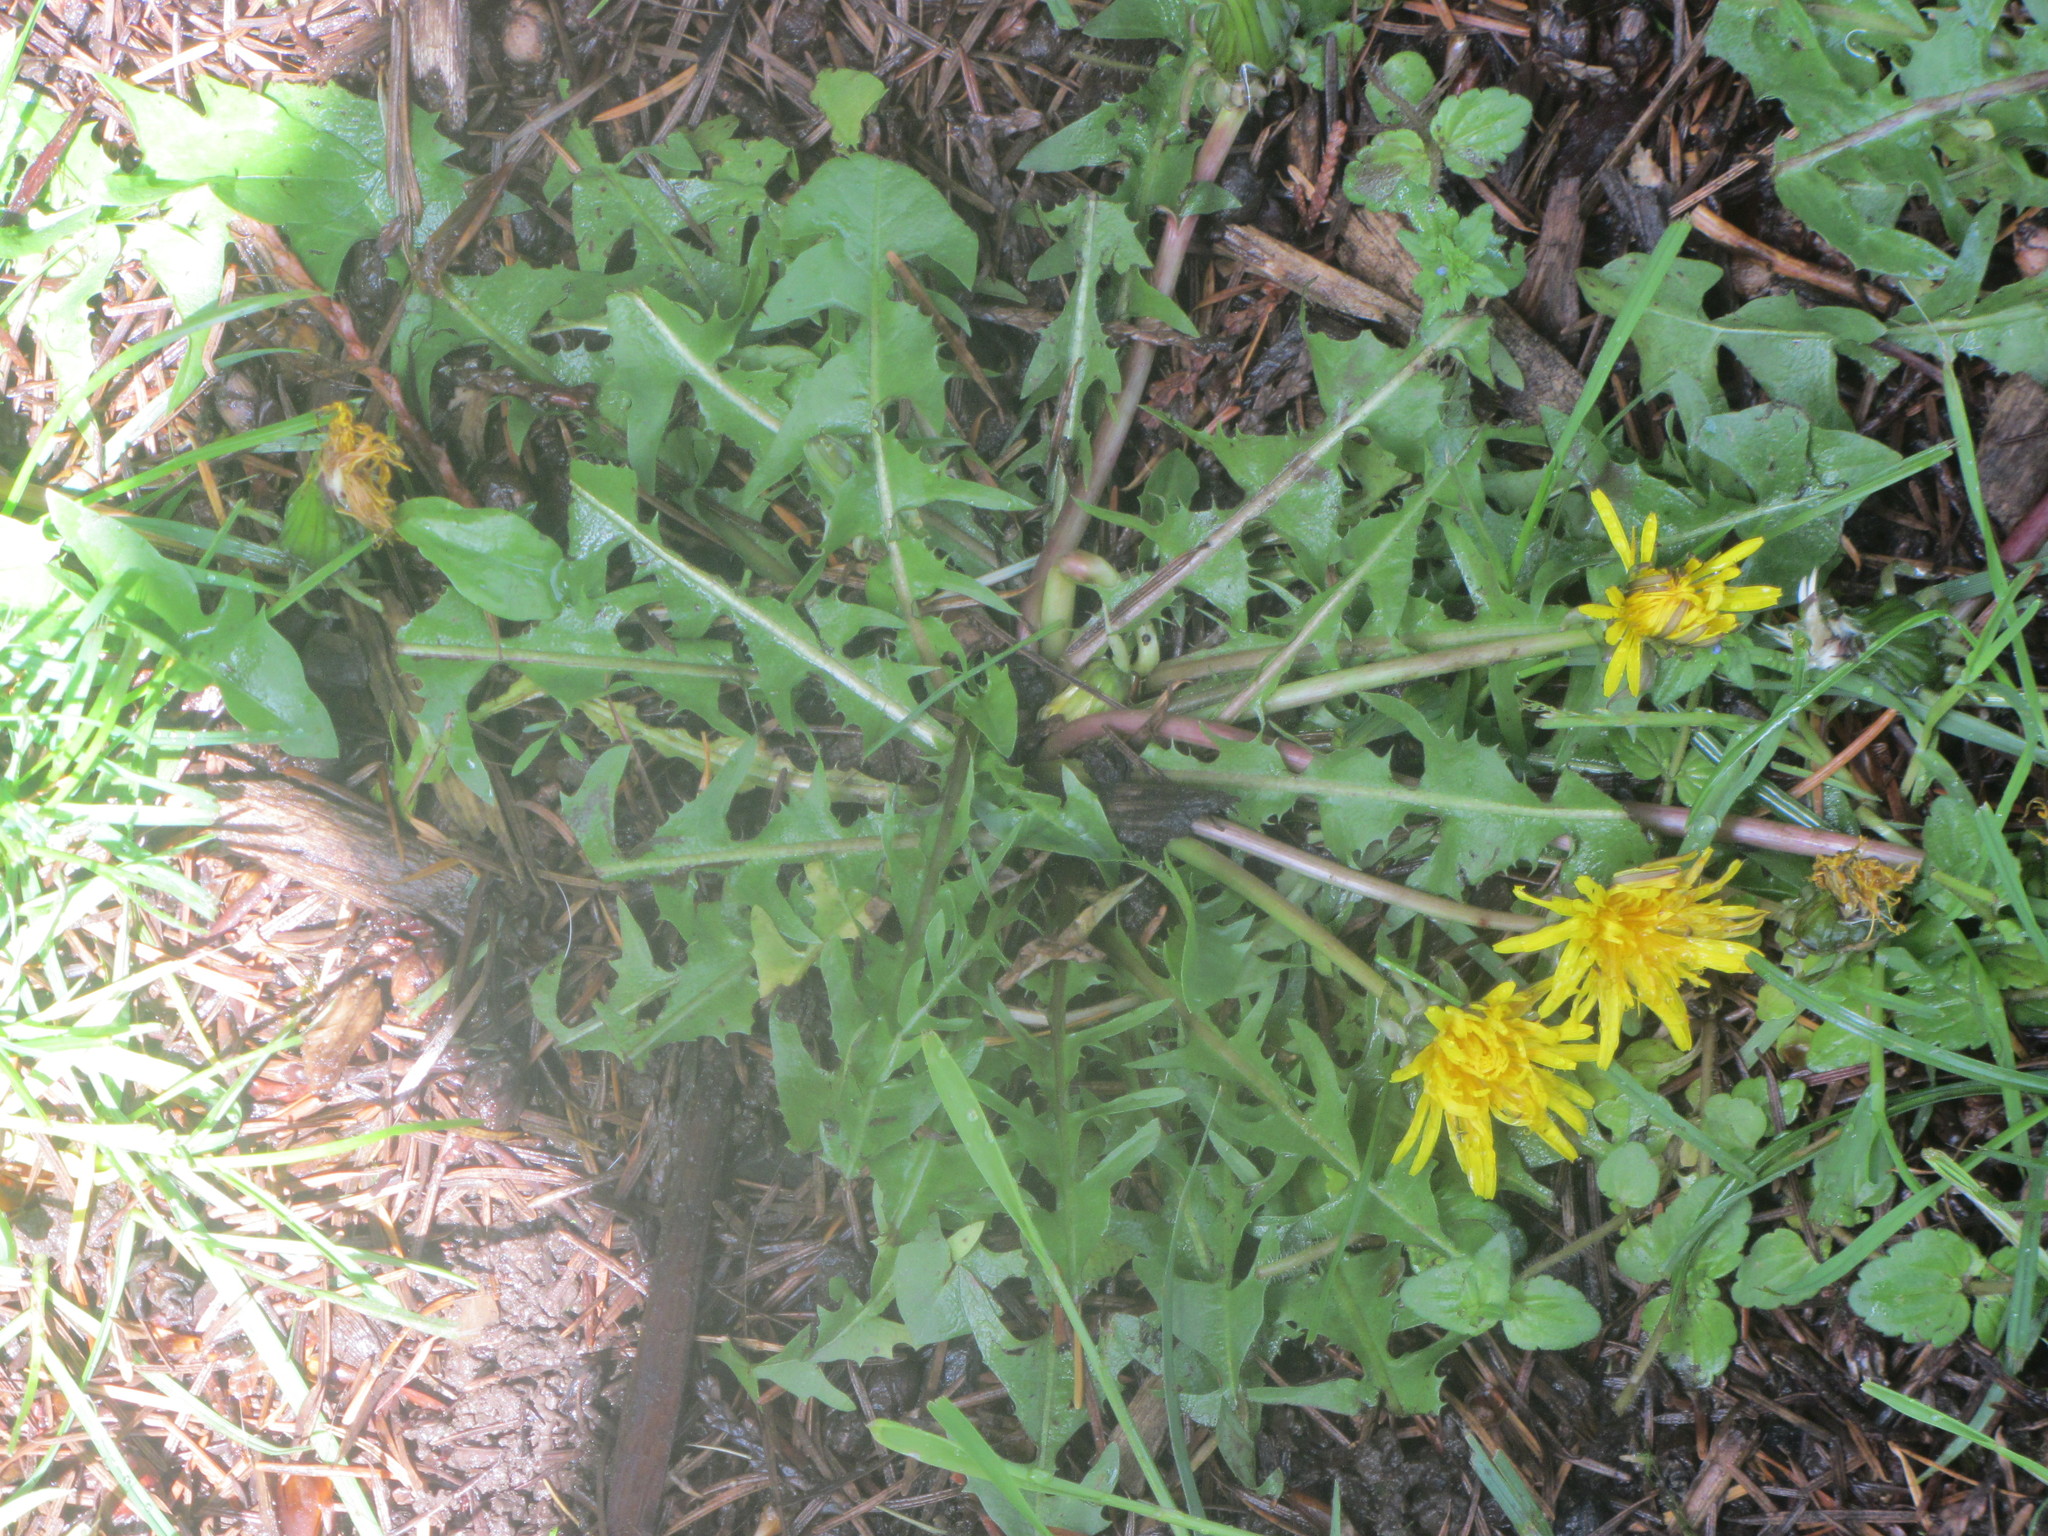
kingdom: Plantae
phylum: Tracheophyta
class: Magnoliopsida
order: Asterales
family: Asteraceae
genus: Taraxacum
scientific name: Taraxacum officinale
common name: Common dandelion
